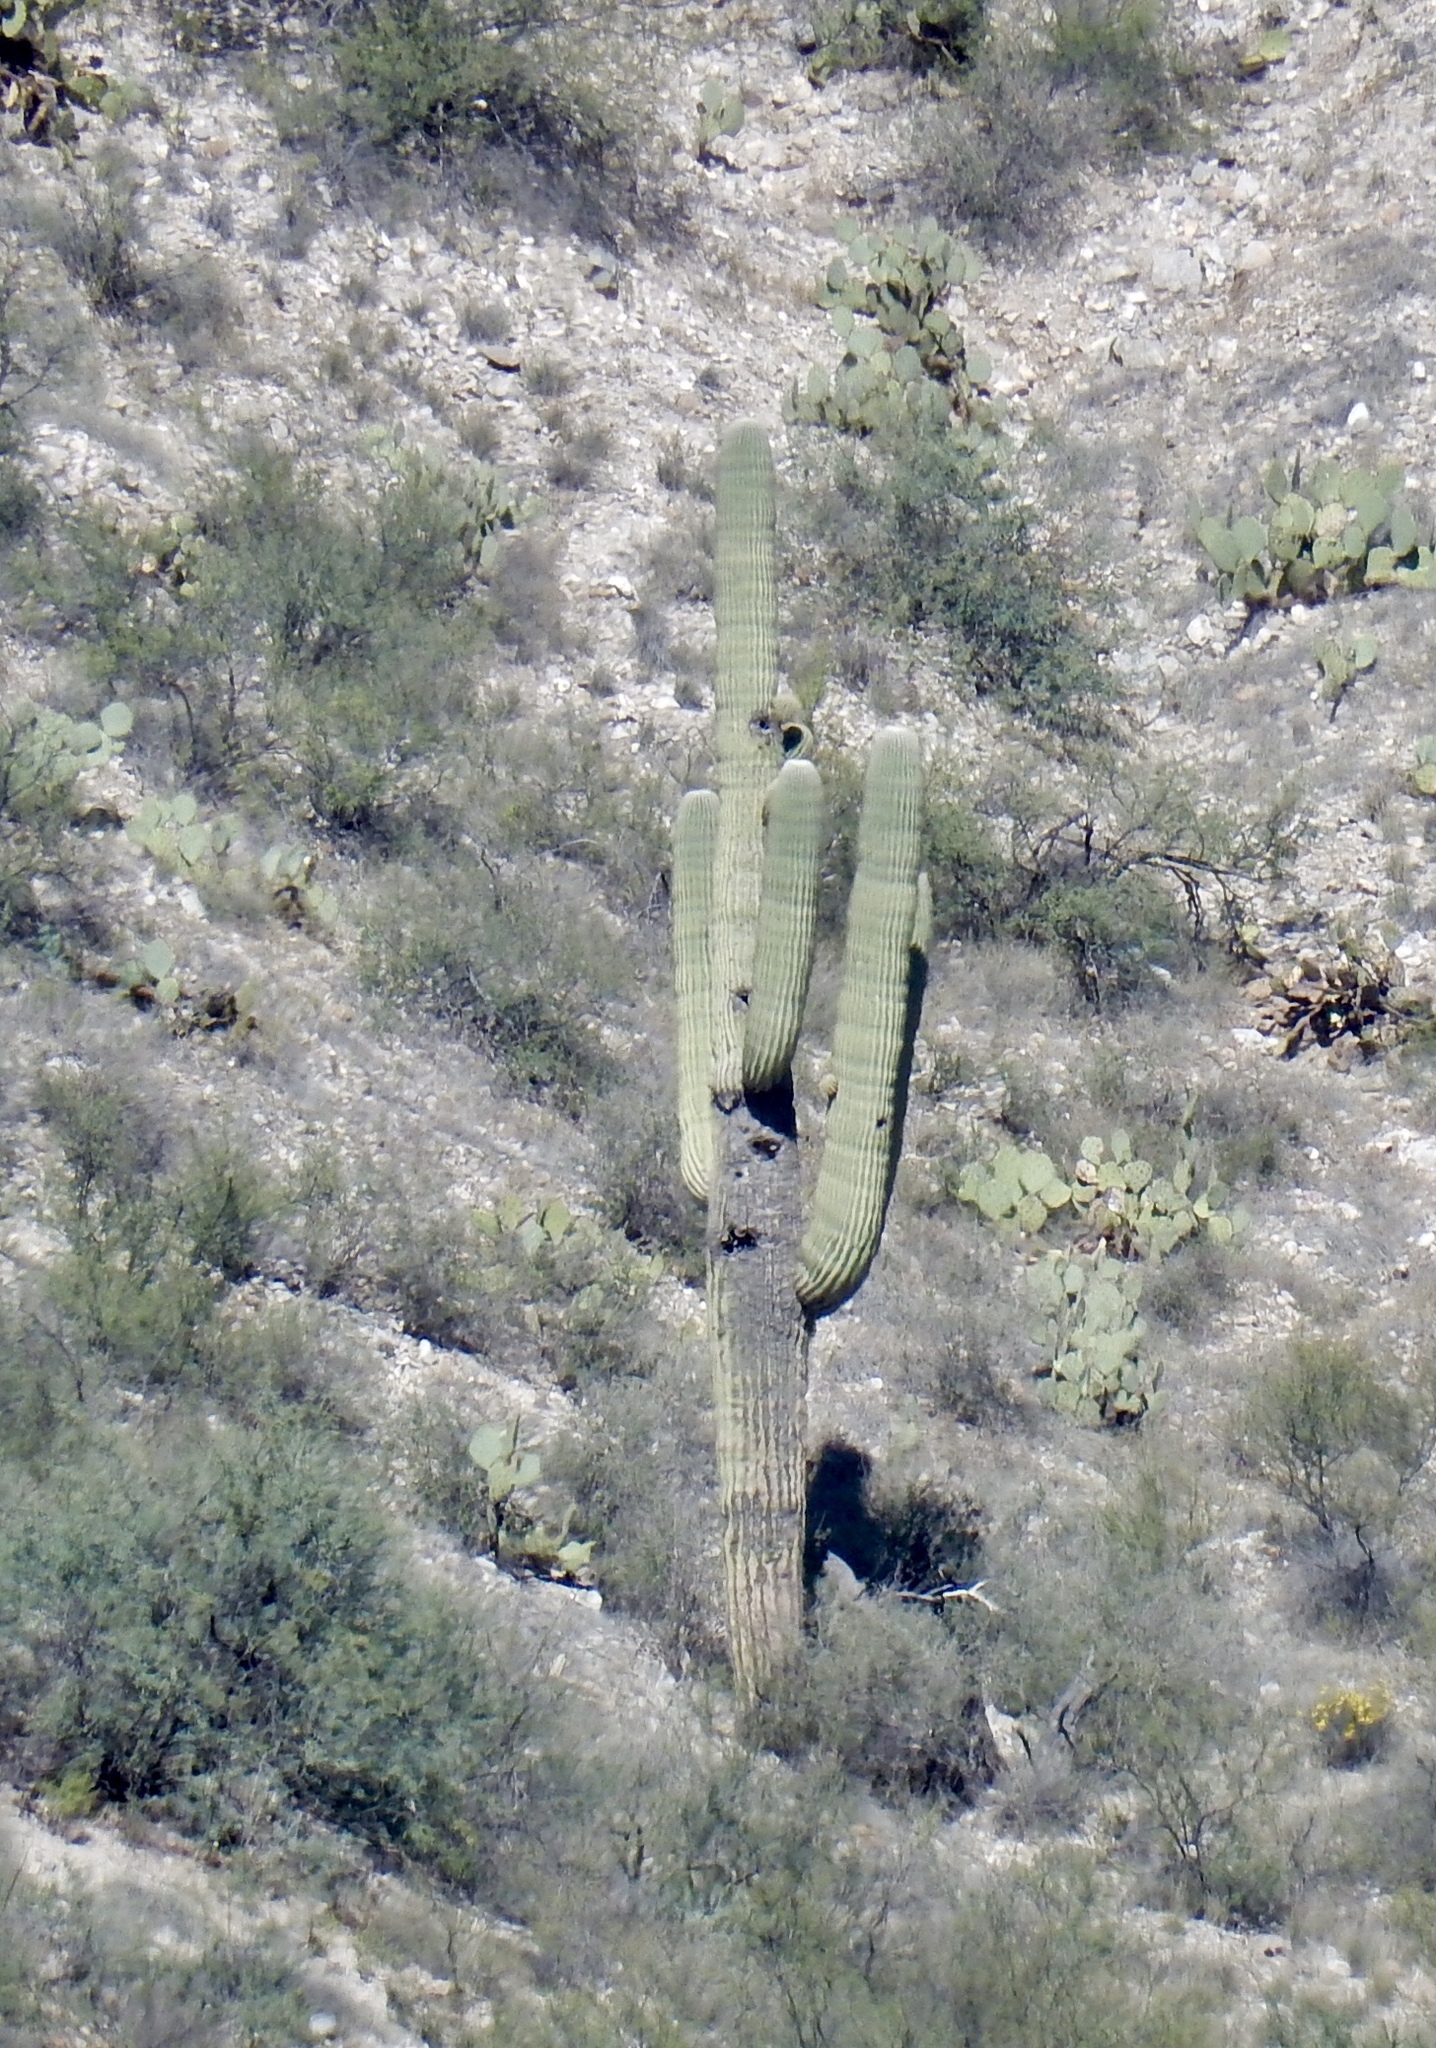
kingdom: Plantae
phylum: Tracheophyta
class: Magnoliopsida
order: Caryophyllales
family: Cactaceae
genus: Carnegiea
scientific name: Carnegiea gigantea
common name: Saguaro
